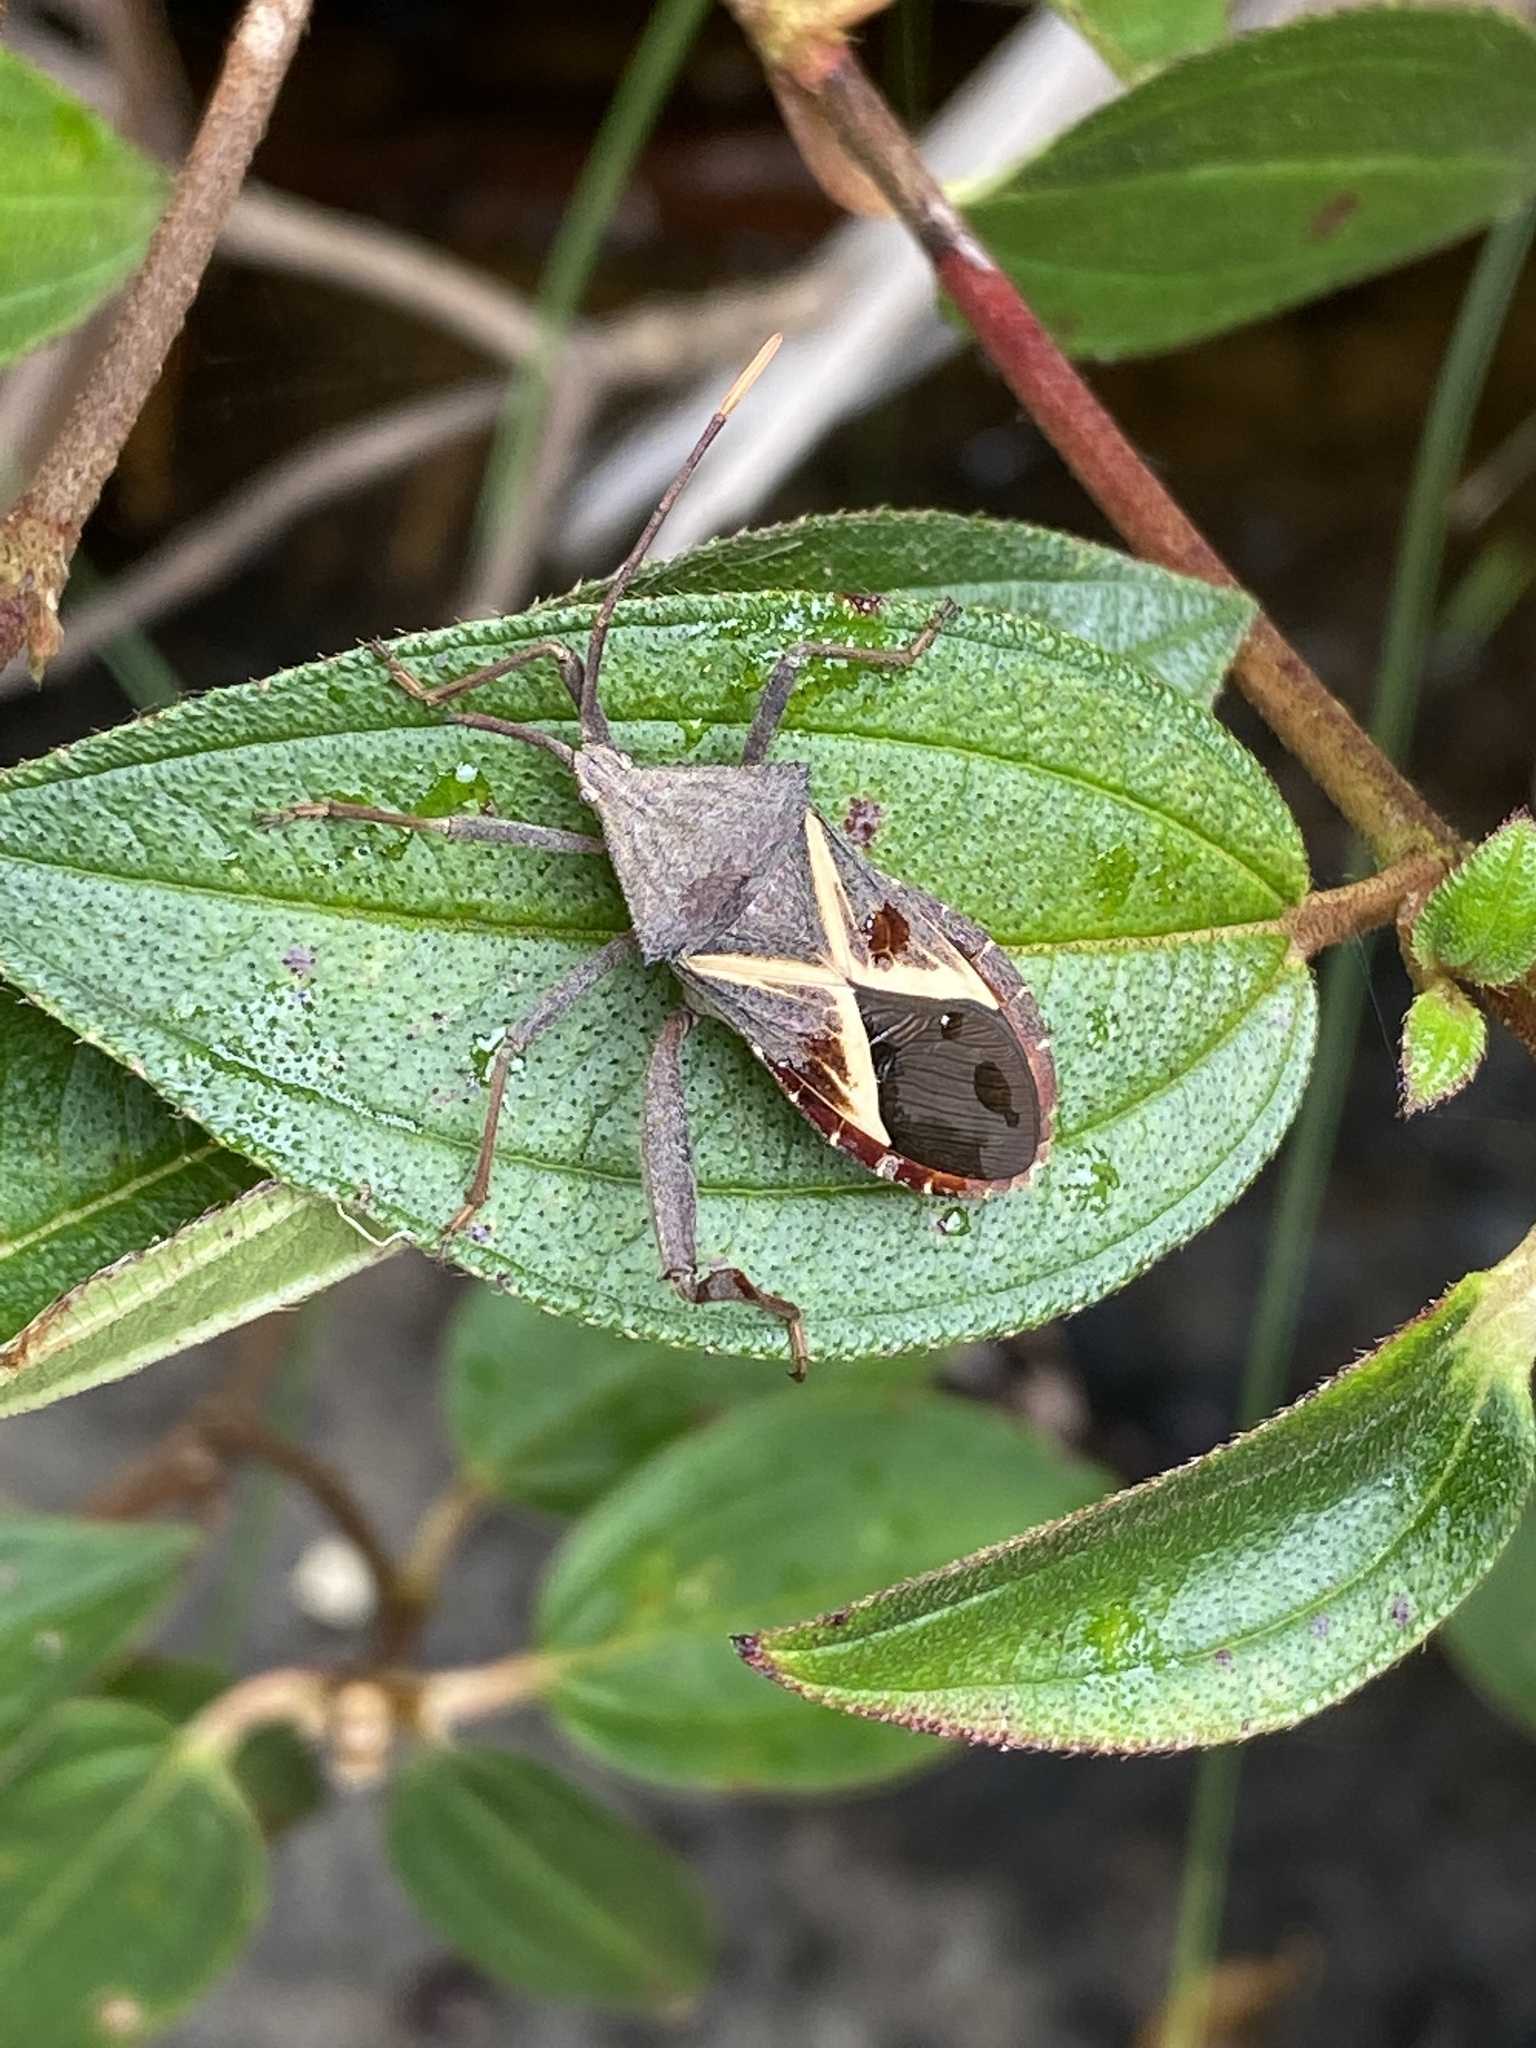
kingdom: Animalia
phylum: Arthropoda
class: Insecta
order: Hemiptera
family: Coreidae
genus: Mictis
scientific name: Mictis profana
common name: Crusader bug
